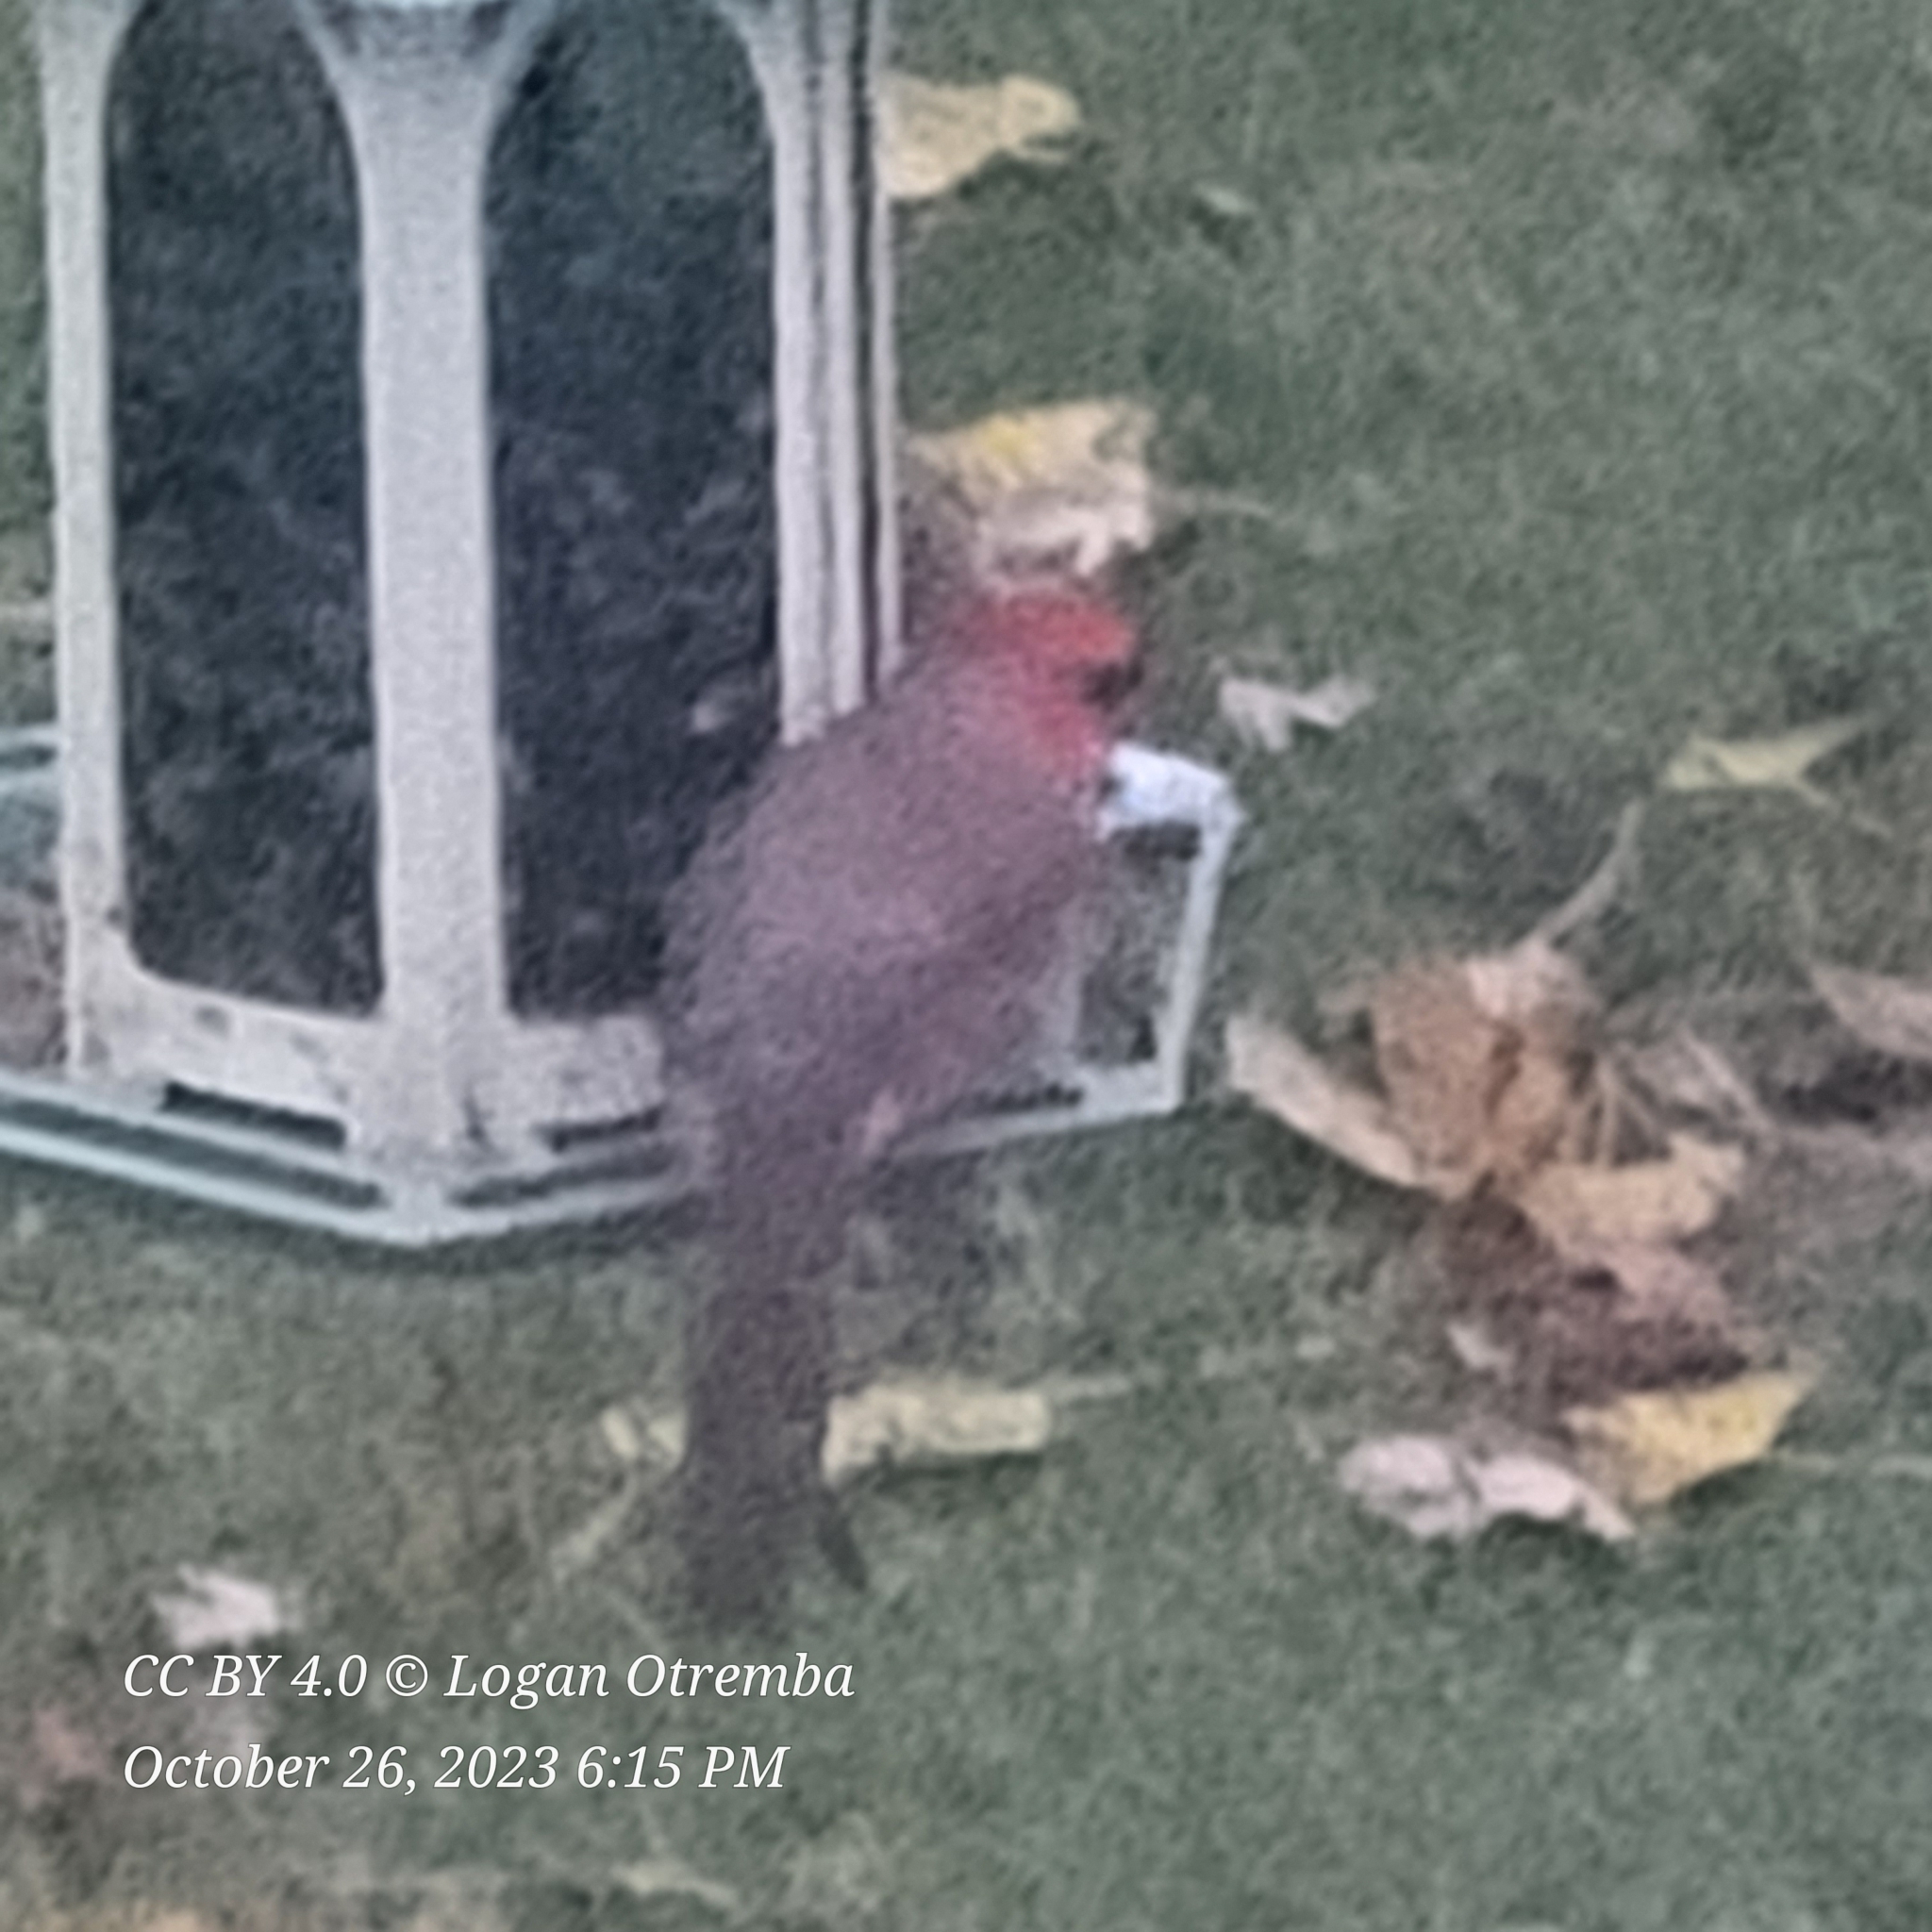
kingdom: Animalia
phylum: Chordata
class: Aves
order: Passeriformes
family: Cardinalidae
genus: Cardinalis
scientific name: Cardinalis cardinalis
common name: Northern cardinal
